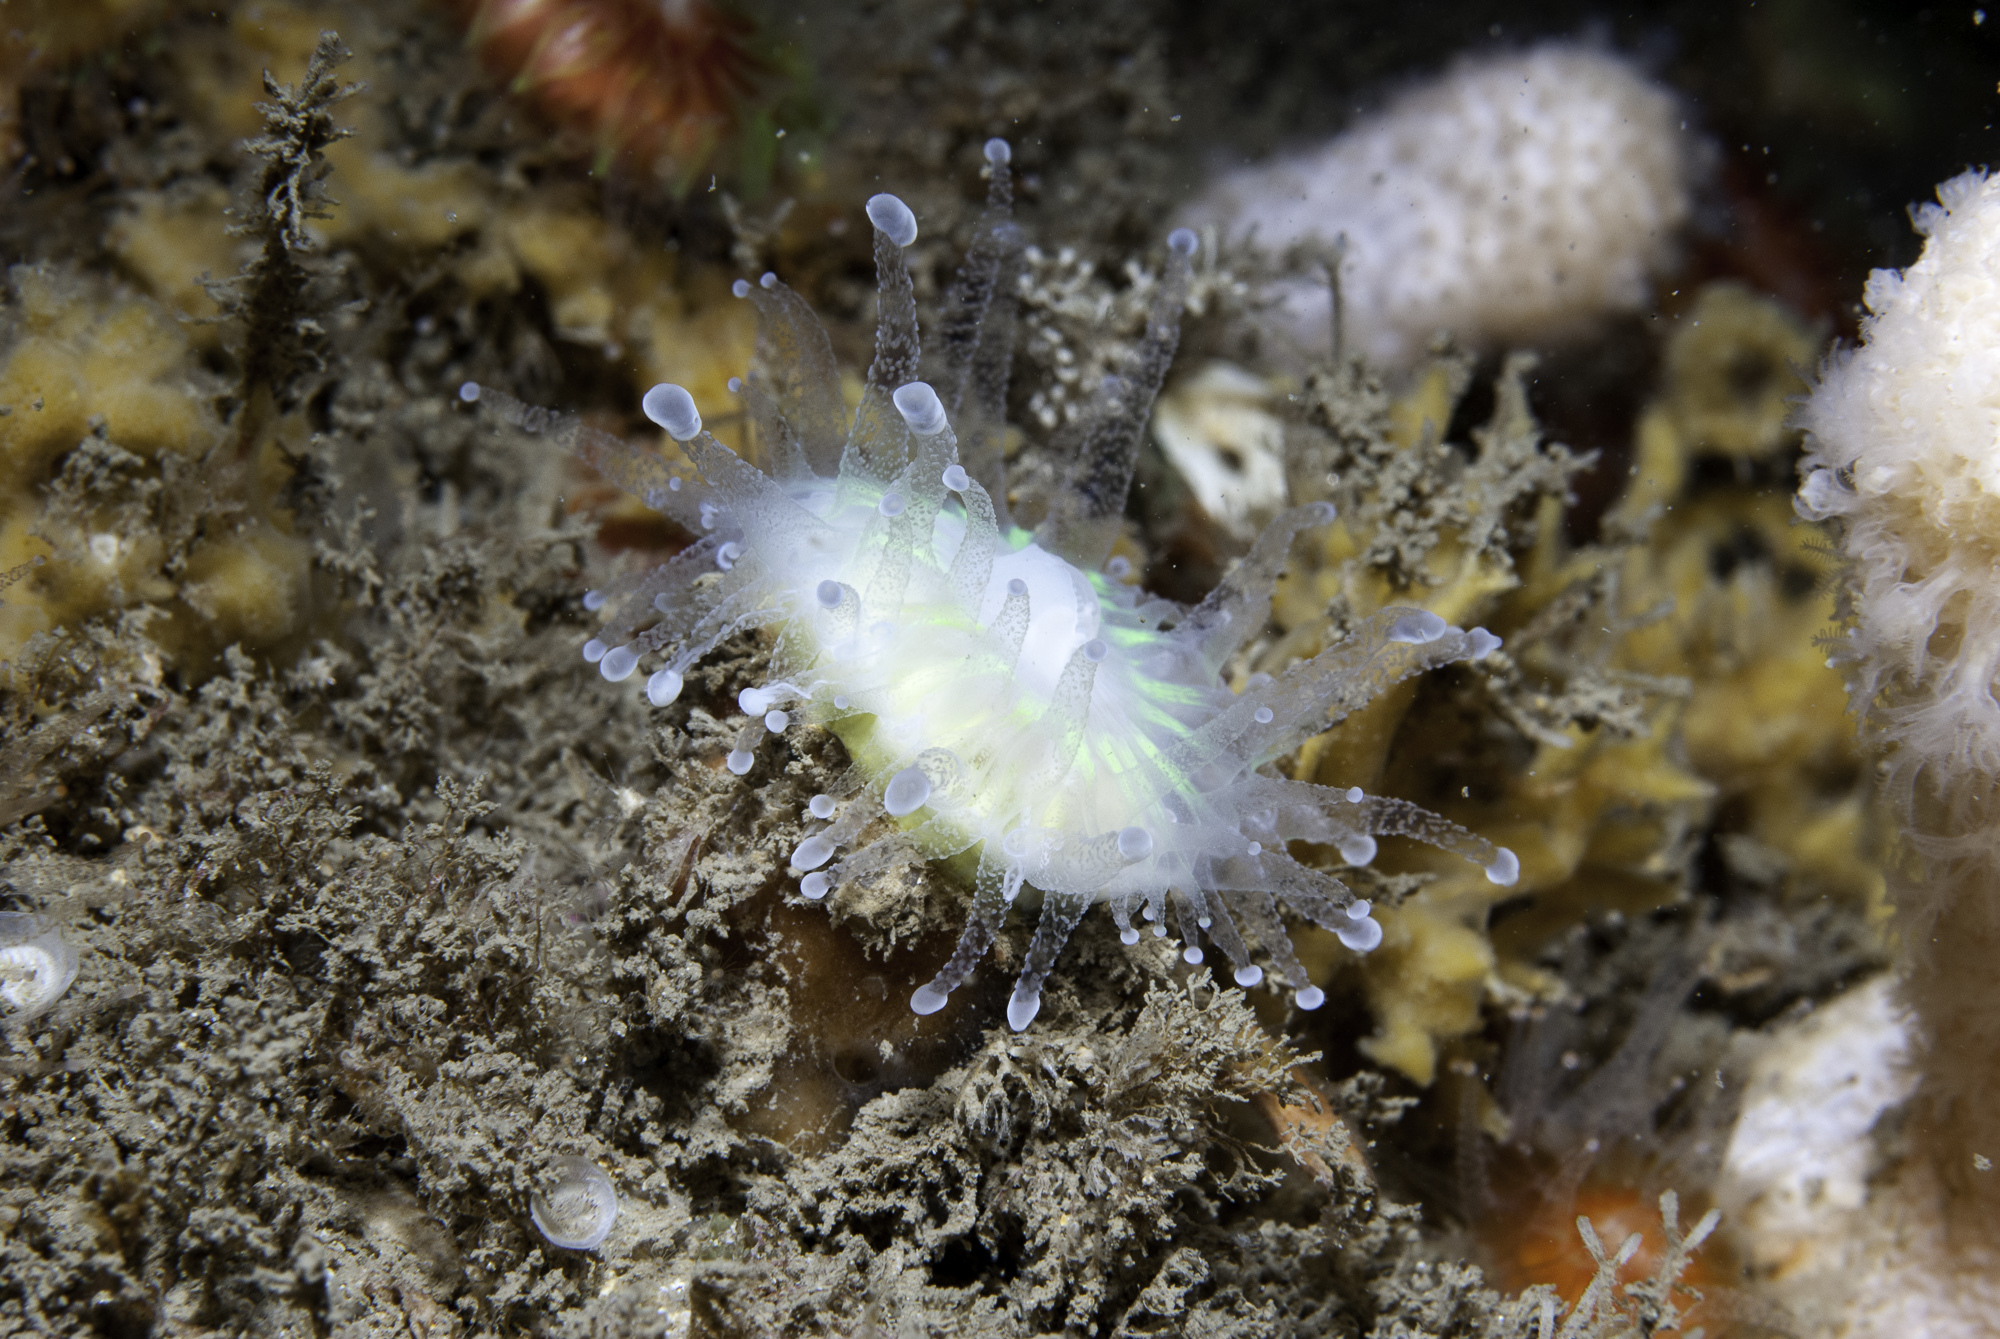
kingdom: Animalia
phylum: Cnidaria
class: Anthozoa
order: Scleractinia
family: Caryophylliidae
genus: Caryophyllia
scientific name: Caryophyllia smithii
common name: Devonshire cup coral
